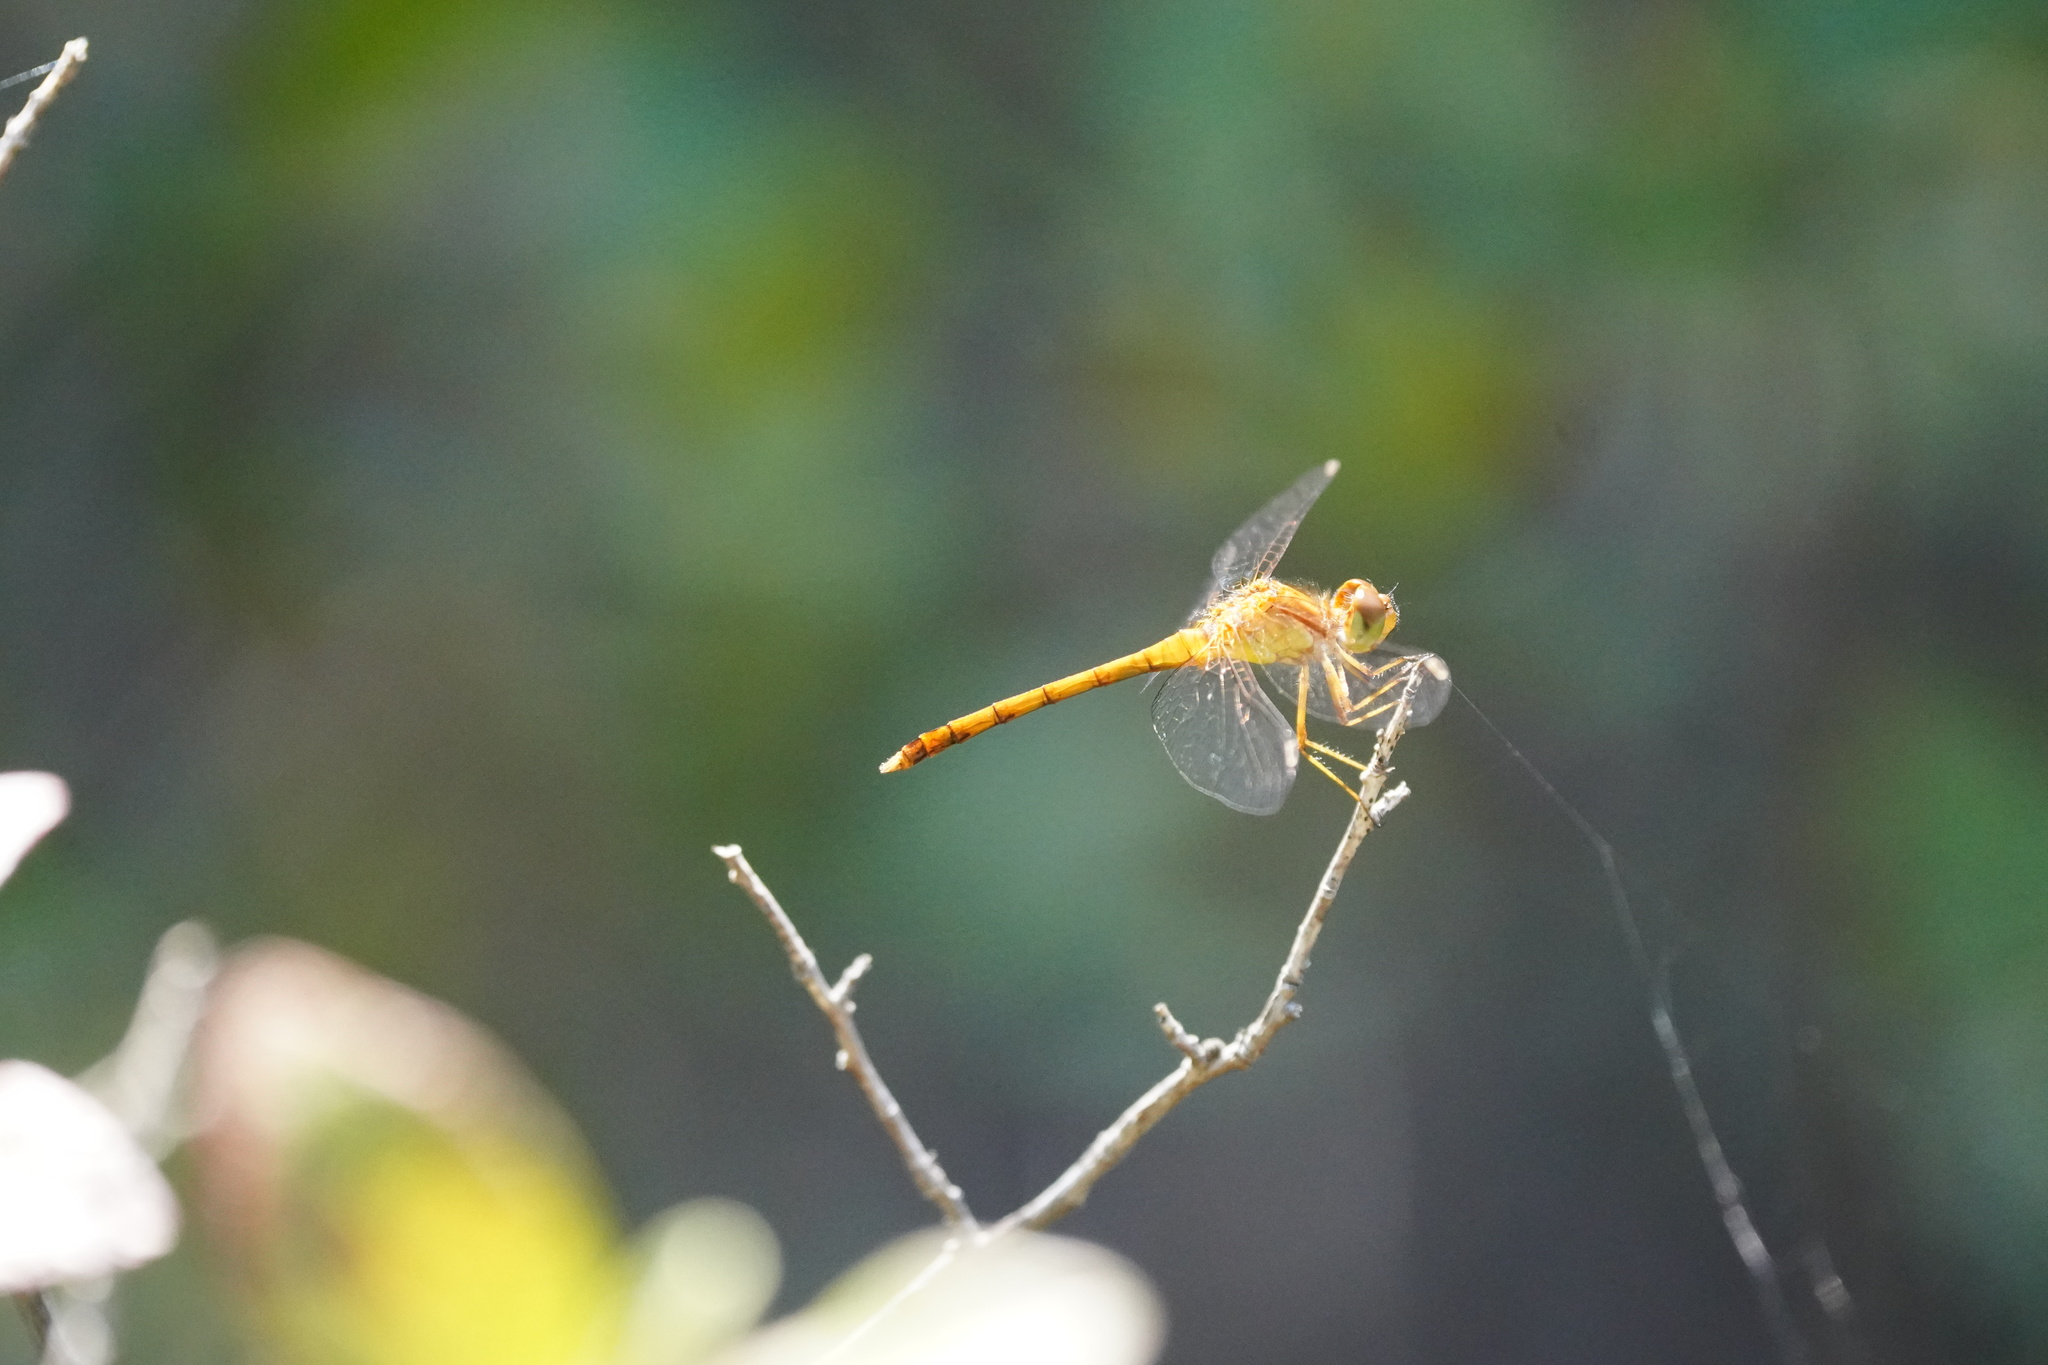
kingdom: Animalia
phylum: Arthropoda
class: Insecta
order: Odonata
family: Libellulidae
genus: Sympetrum
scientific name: Sympetrum vicinum
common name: Autumn meadowhawk
